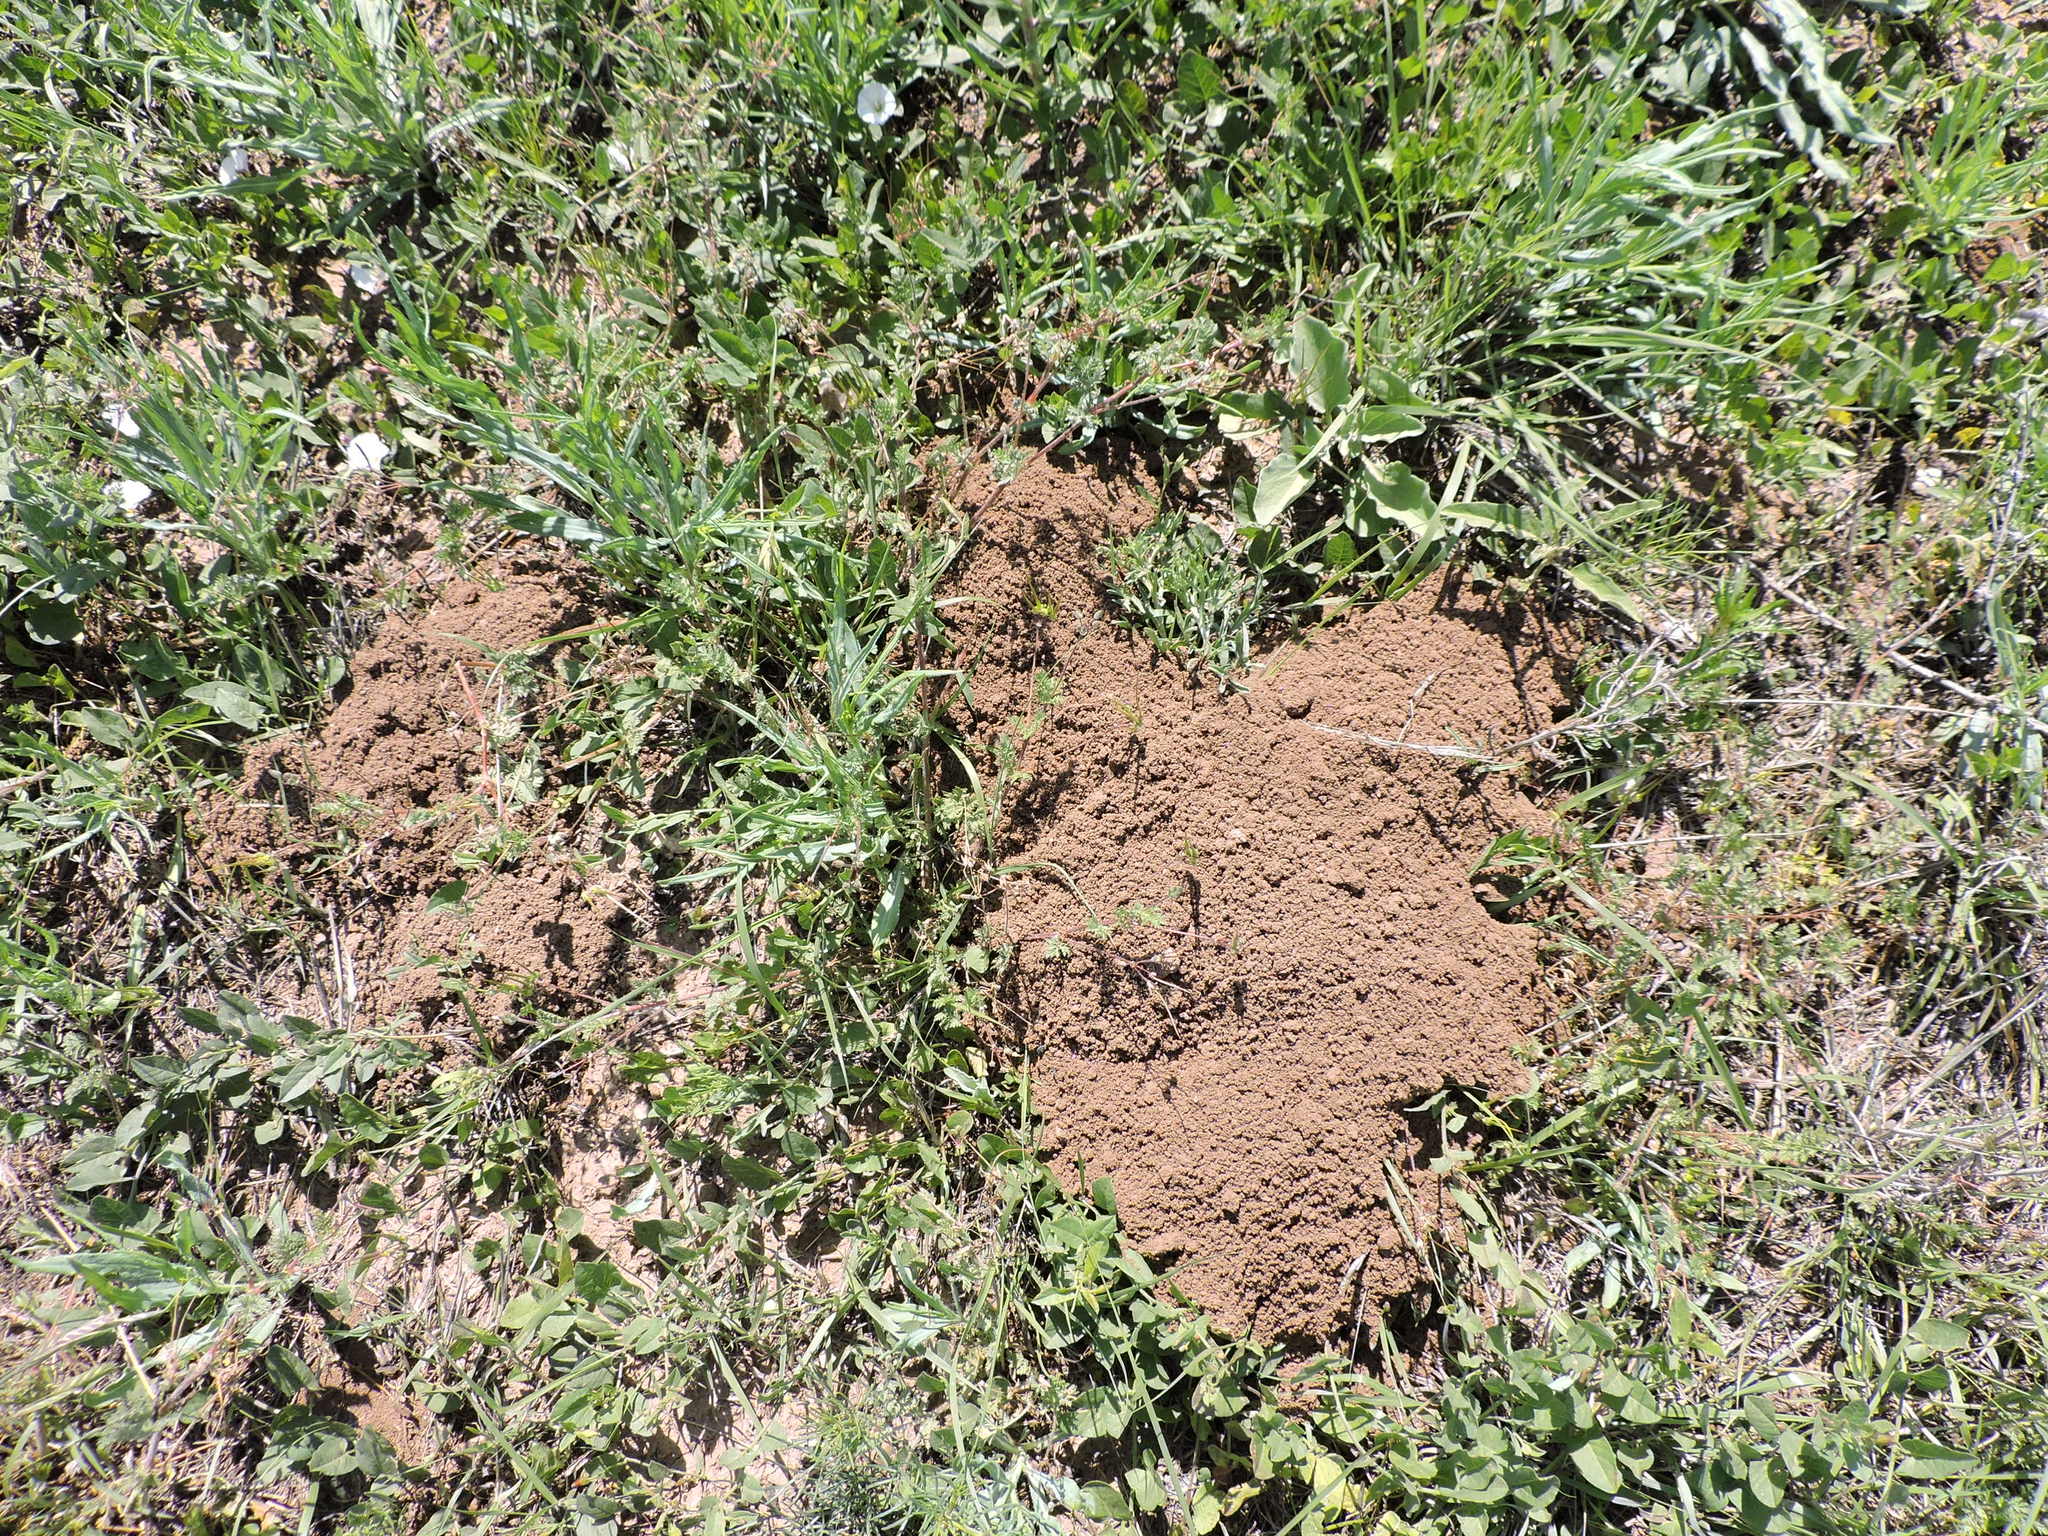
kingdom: Animalia
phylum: Chordata
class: Mammalia
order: Rodentia
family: Geomyidae
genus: Geomys
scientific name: Geomys bursarius
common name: Plains pocket gopher
